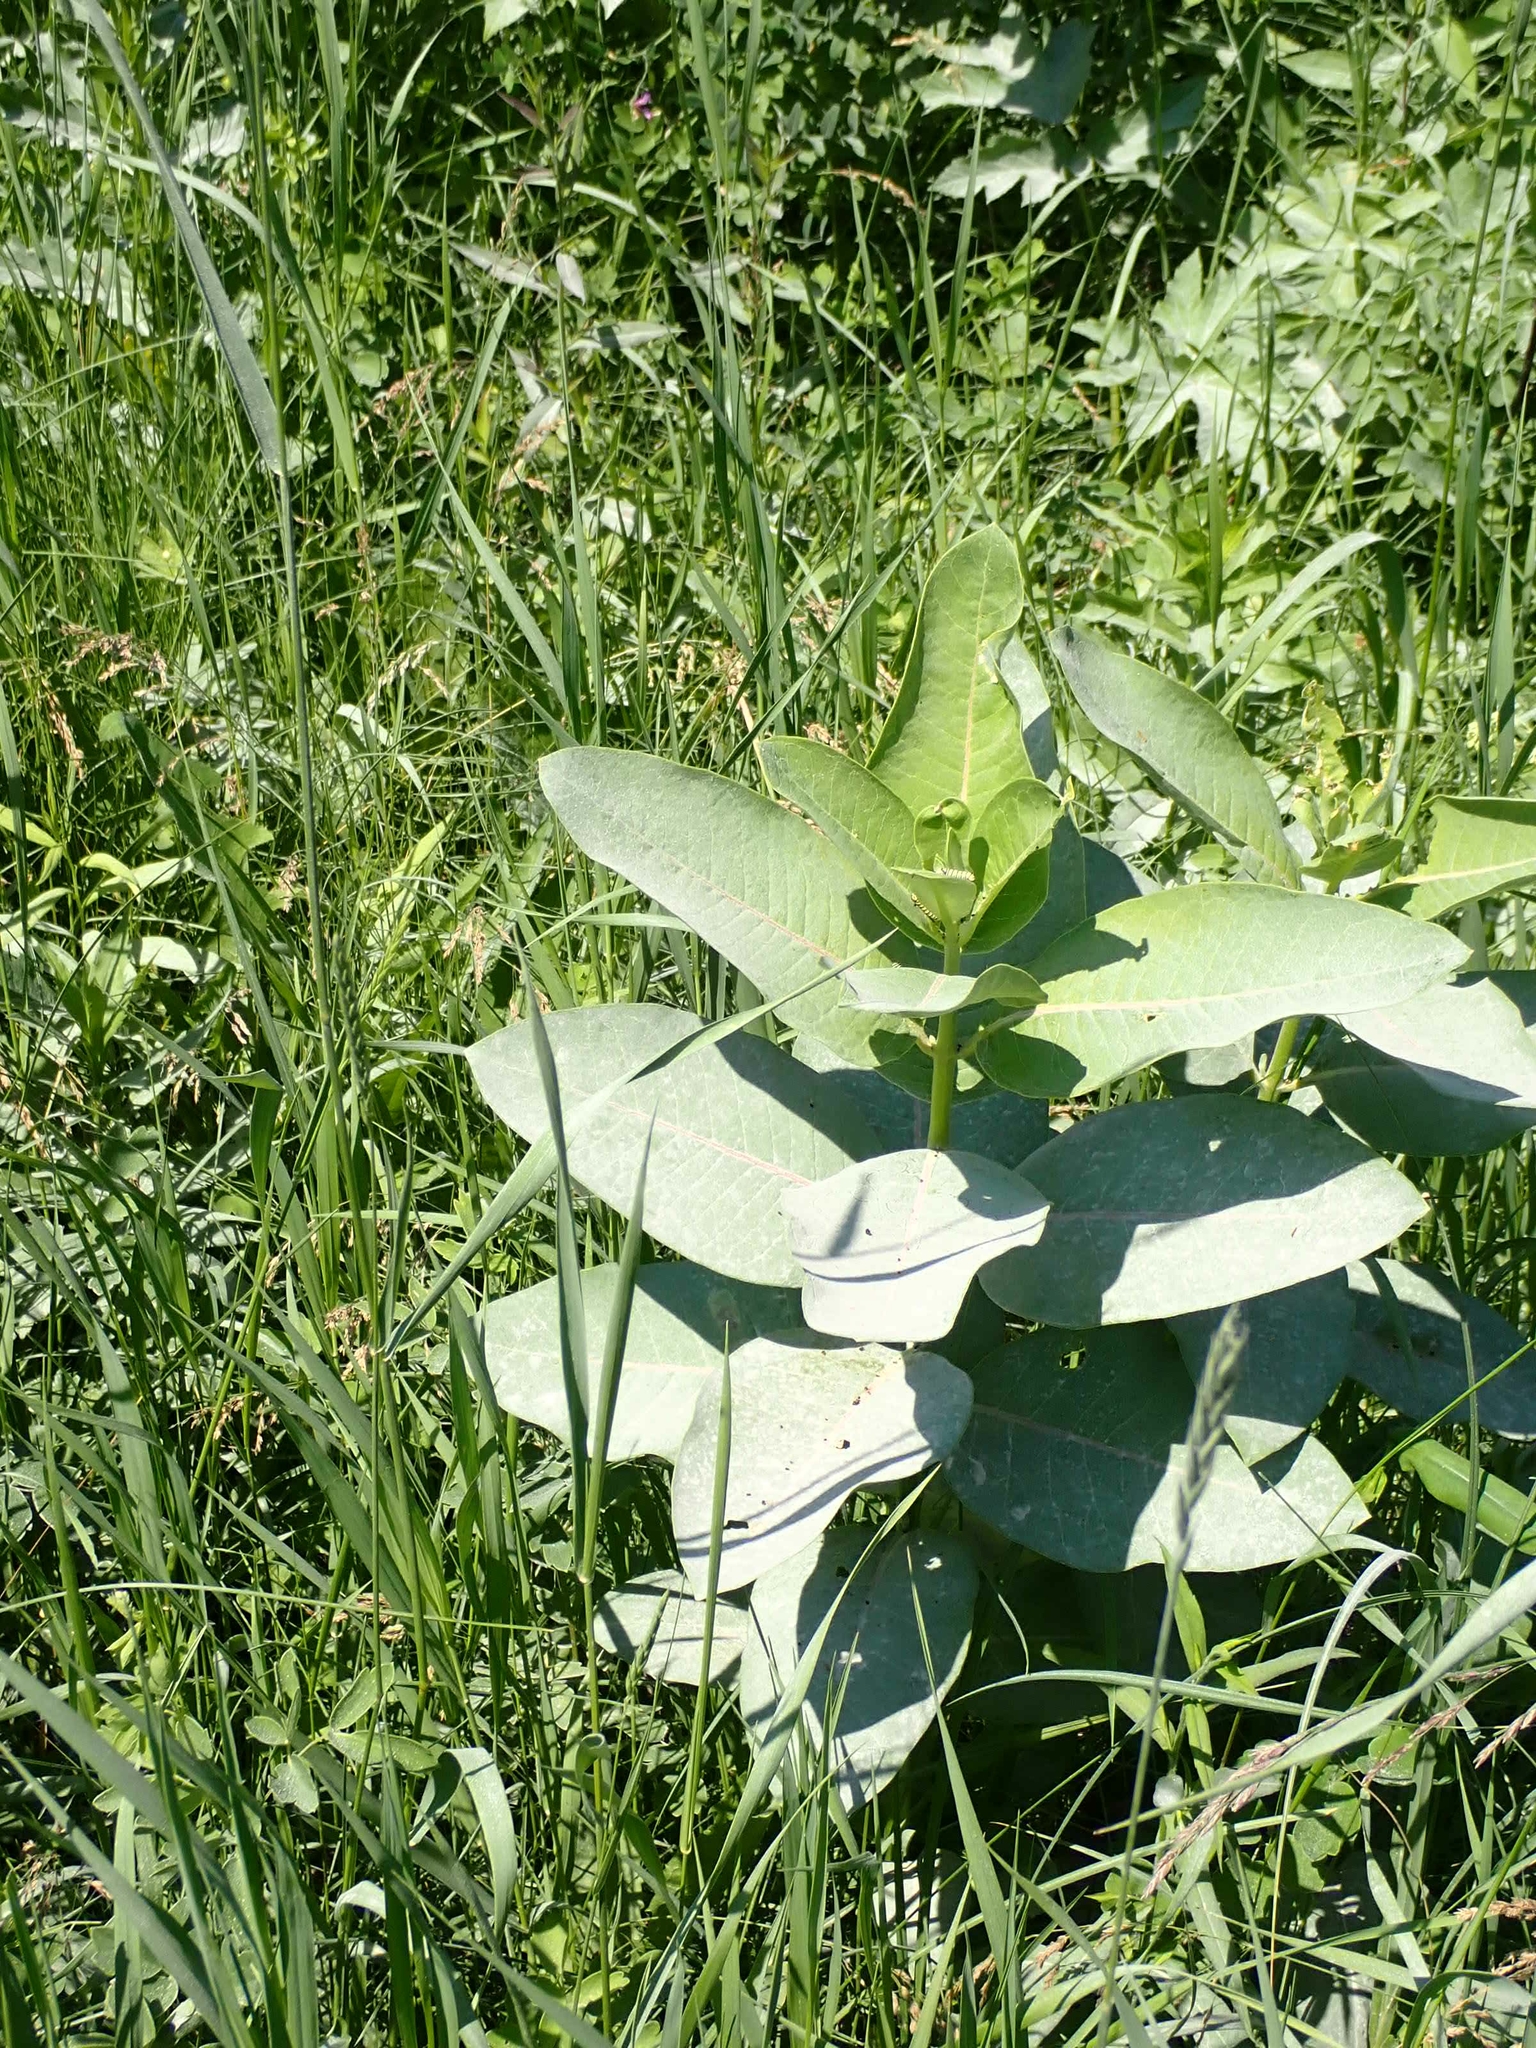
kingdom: Plantae
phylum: Tracheophyta
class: Magnoliopsida
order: Gentianales
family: Apocynaceae
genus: Asclepias
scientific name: Asclepias syriaca
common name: Common milkweed
